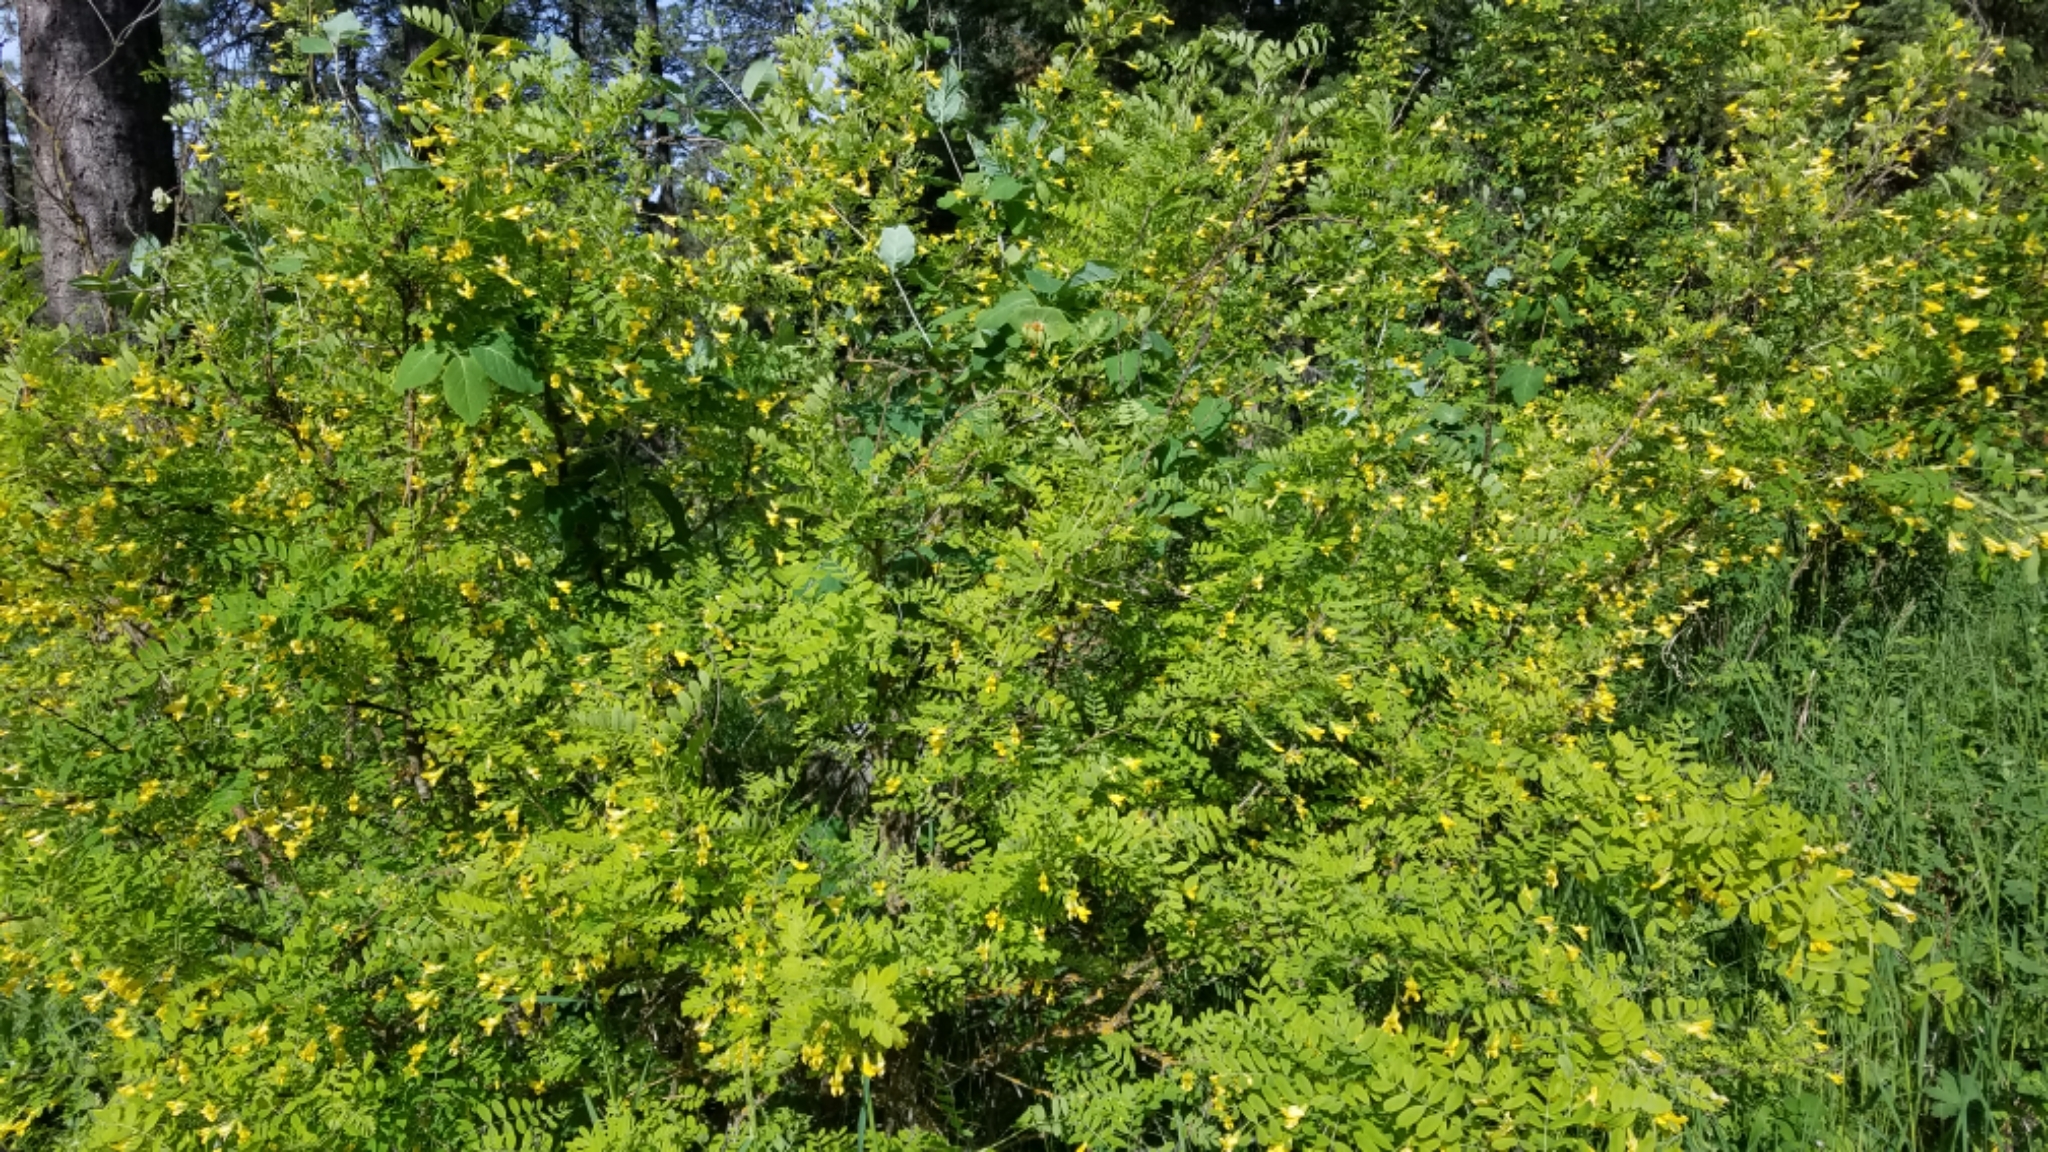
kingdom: Plantae
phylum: Tracheophyta
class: Magnoliopsida
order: Fabales
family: Fabaceae
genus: Caragana
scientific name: Caragana arborescens
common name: Siberian peashrub
